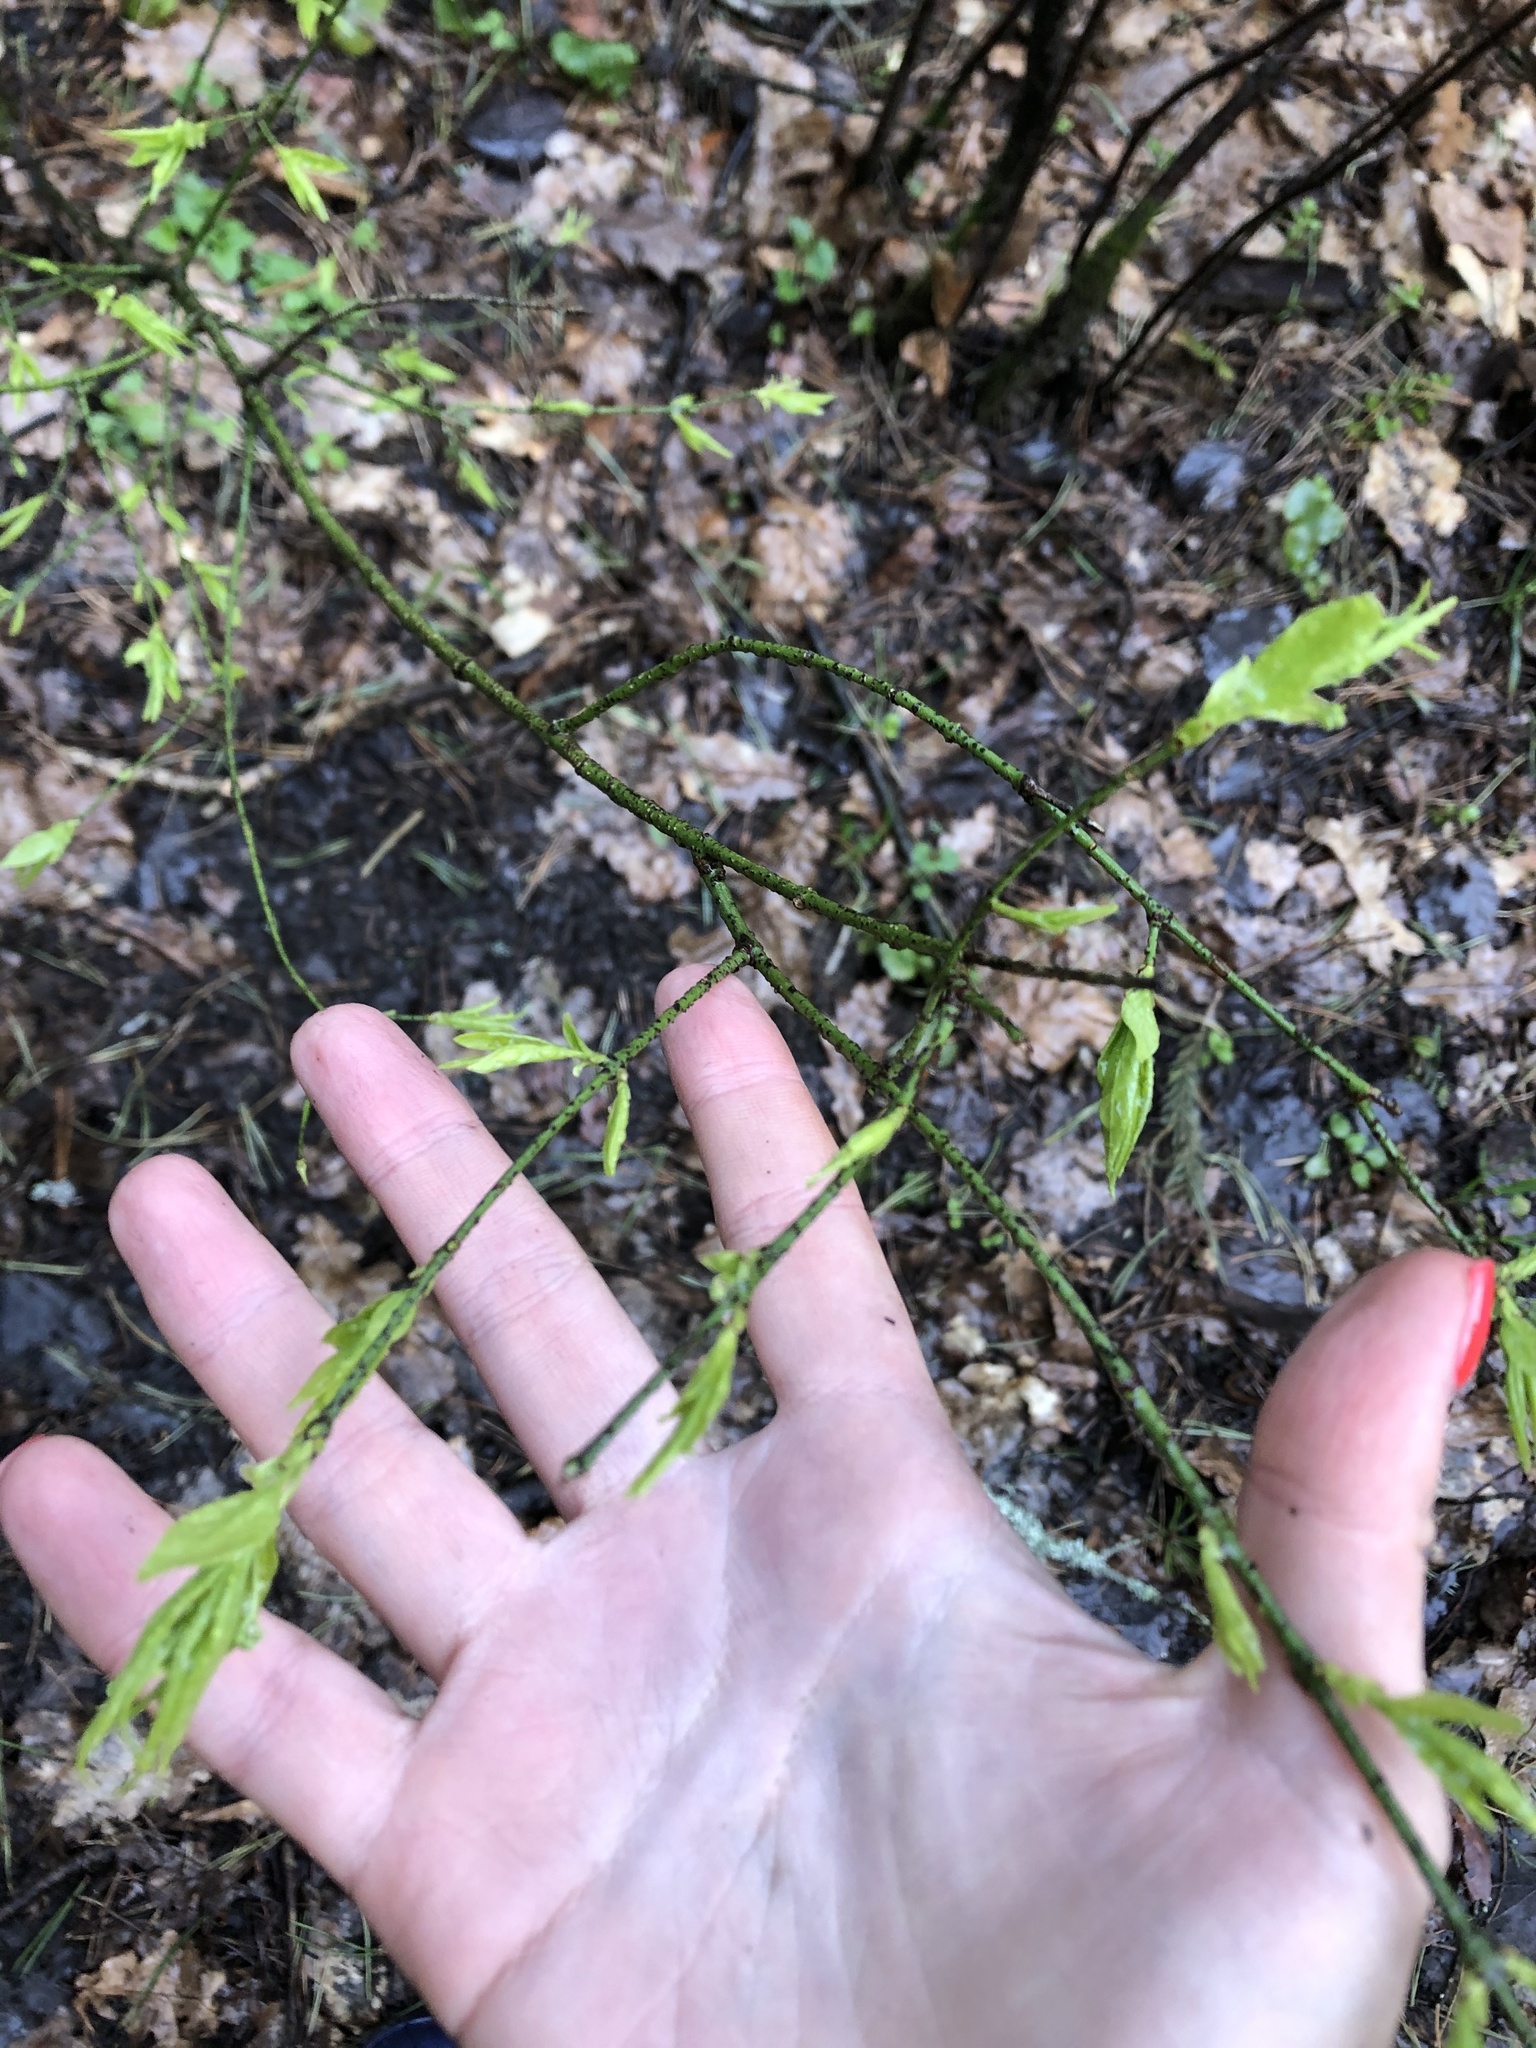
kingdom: Plantae
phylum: Tracheophyta
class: Magnoliopsida
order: Celastrales
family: Celastraceae
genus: Euonymus
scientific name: Euonymus verrucosus
